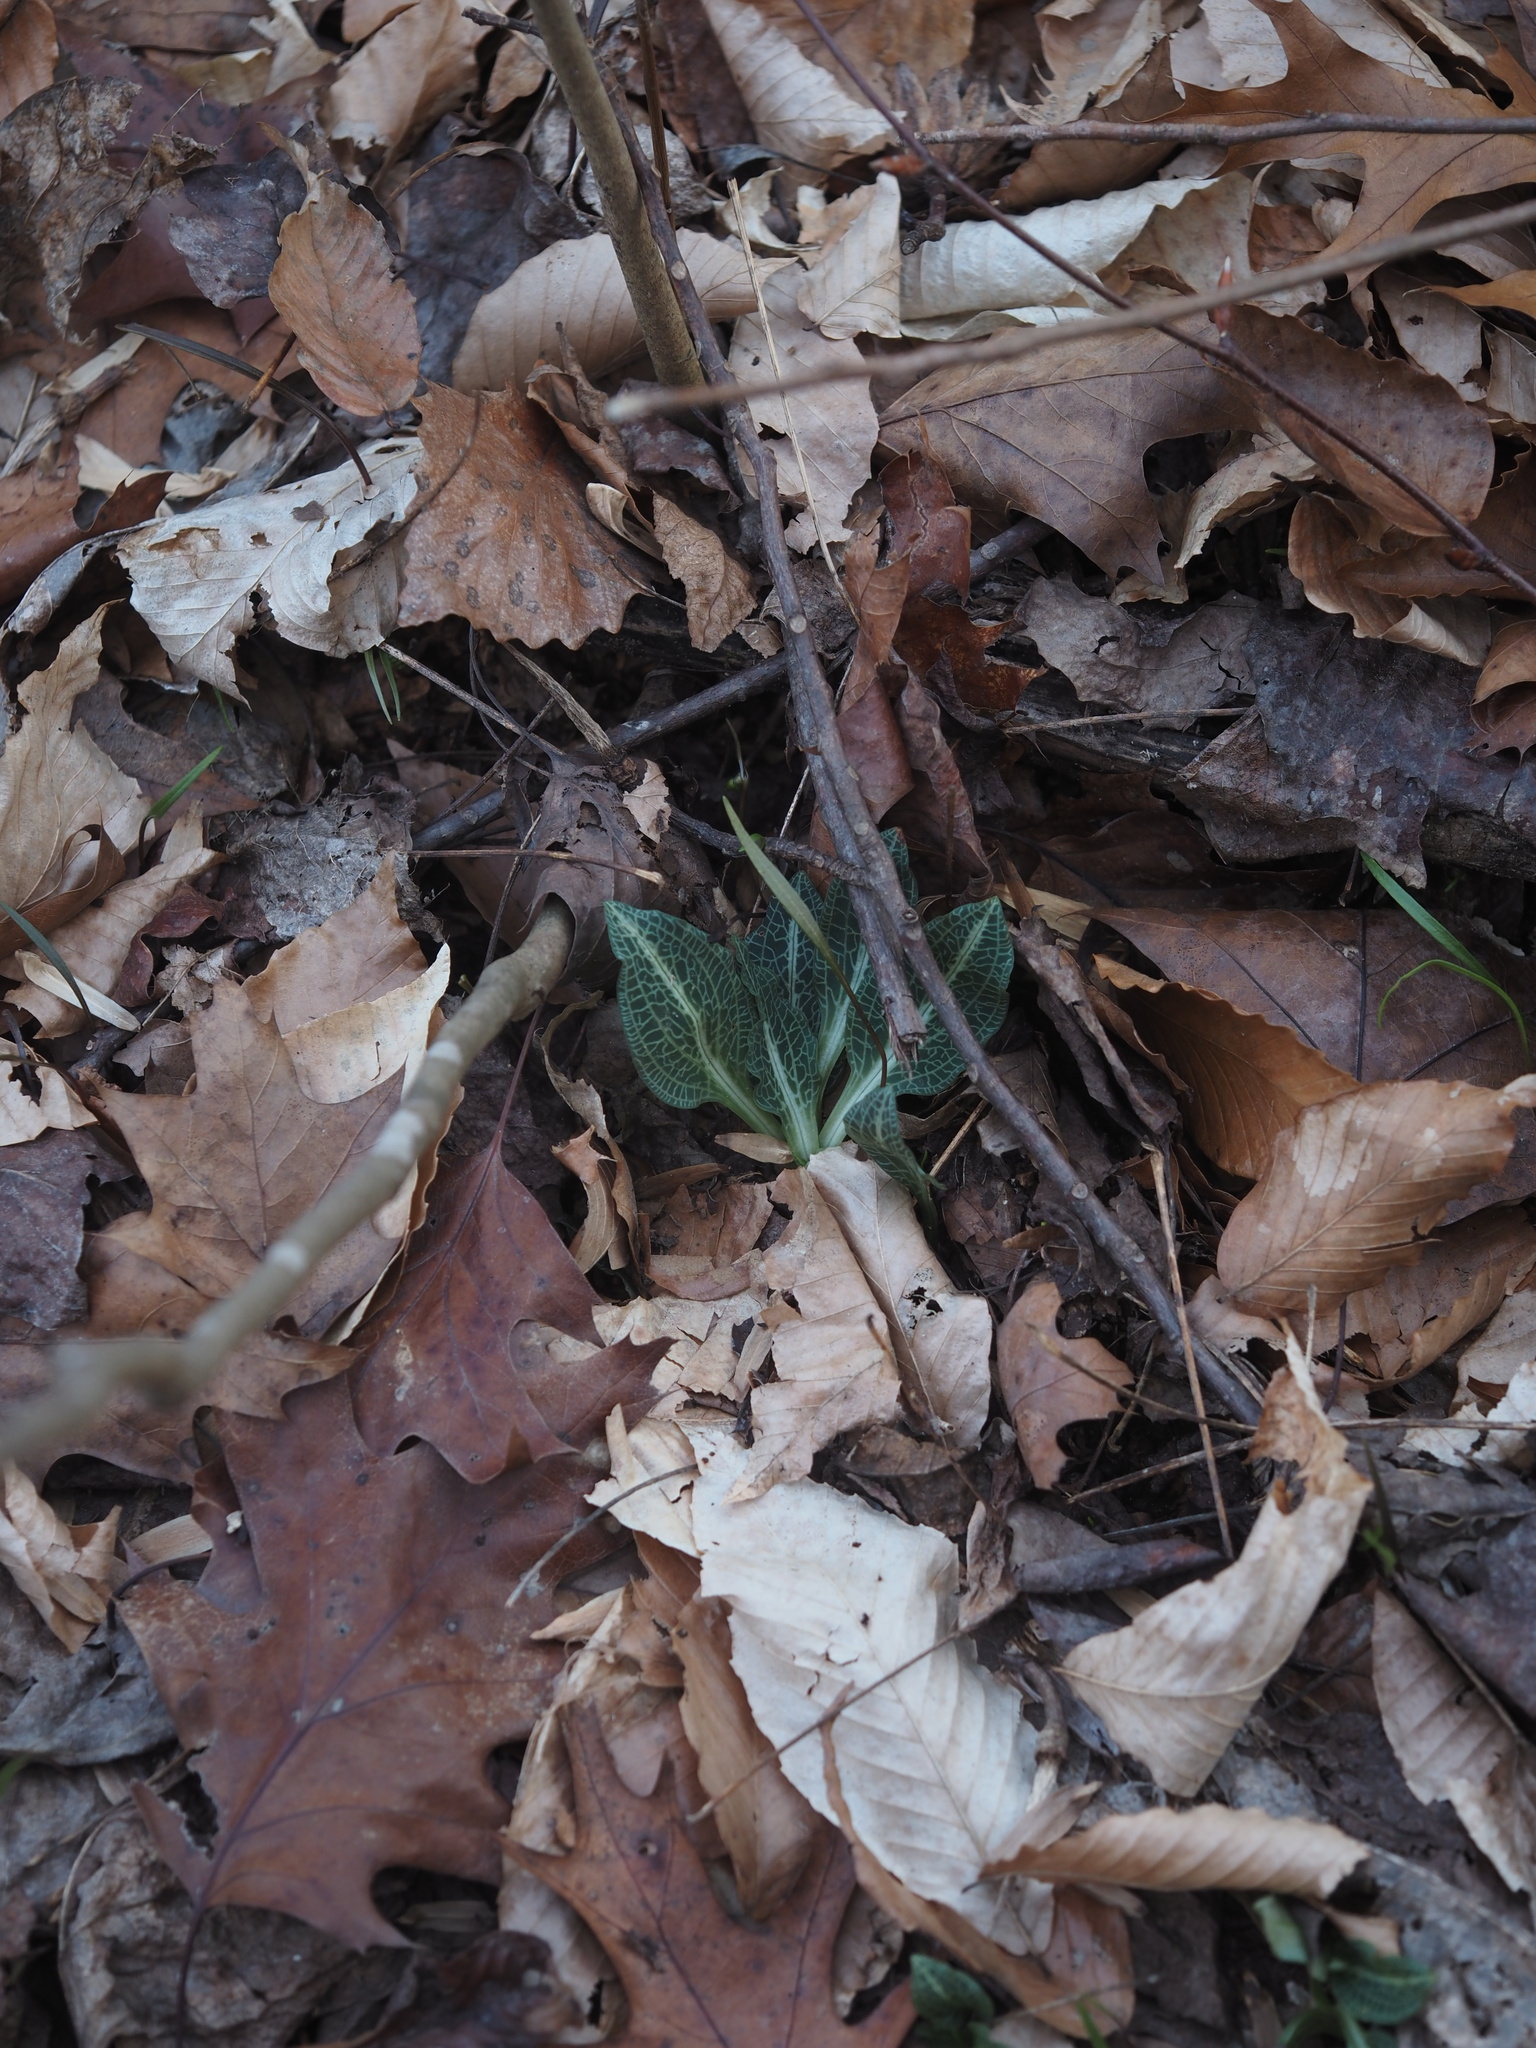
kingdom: Plantae
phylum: Tracheophyta
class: Liliopsida
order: Asparagales
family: Orchidaceae
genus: Goodyera
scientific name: Goodyera pubescens
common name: Downy rattlesnake-plantain
